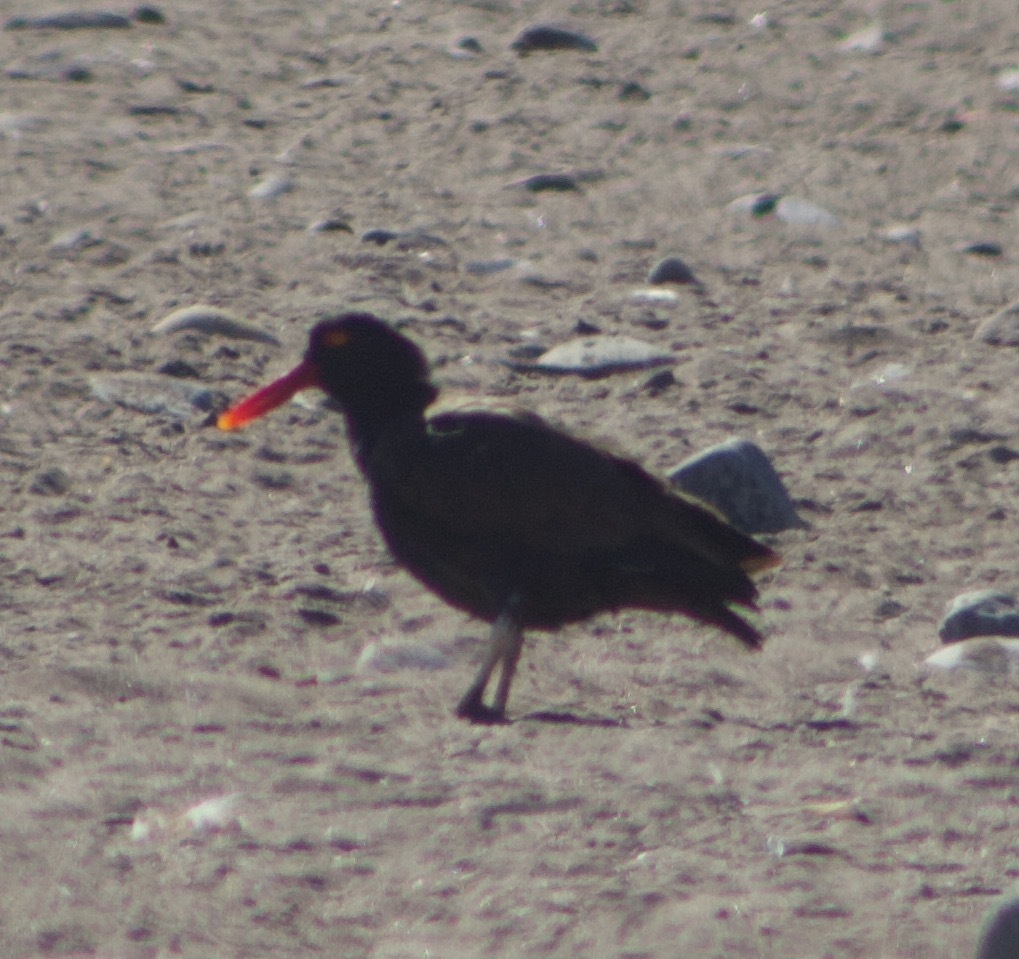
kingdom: Animalia
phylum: Chordata
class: Aves
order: Charadriiformes
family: Haematopodidae
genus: Haematopus
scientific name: Haematopus ater
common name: Blackish oystercatcher
